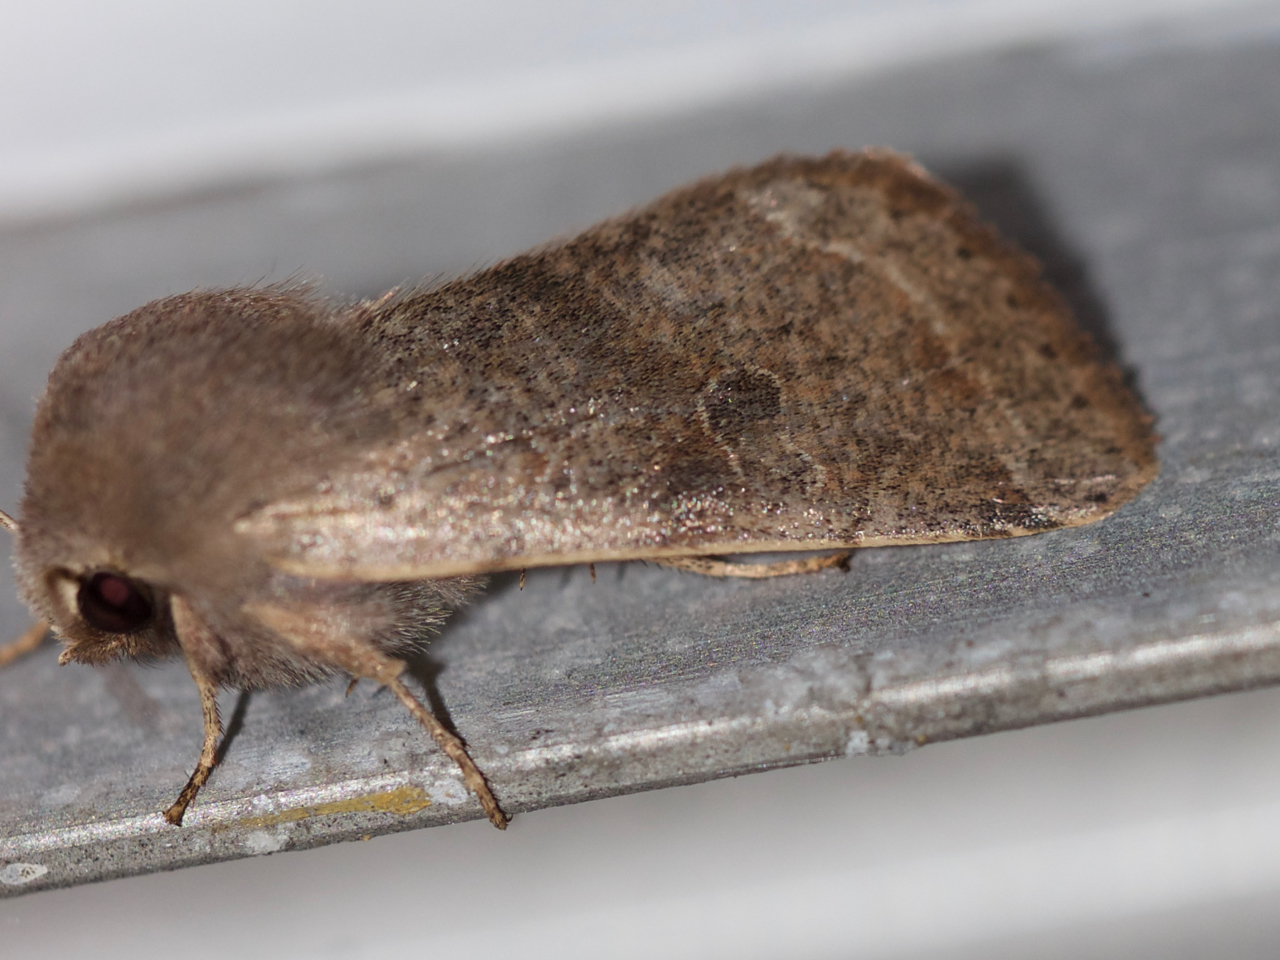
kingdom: Animalia
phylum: Arthropoda
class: Insecta
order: Lepidoptera
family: Noctuidae
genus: Orthosia
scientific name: Orthosia hibisci
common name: Green fruitworm
